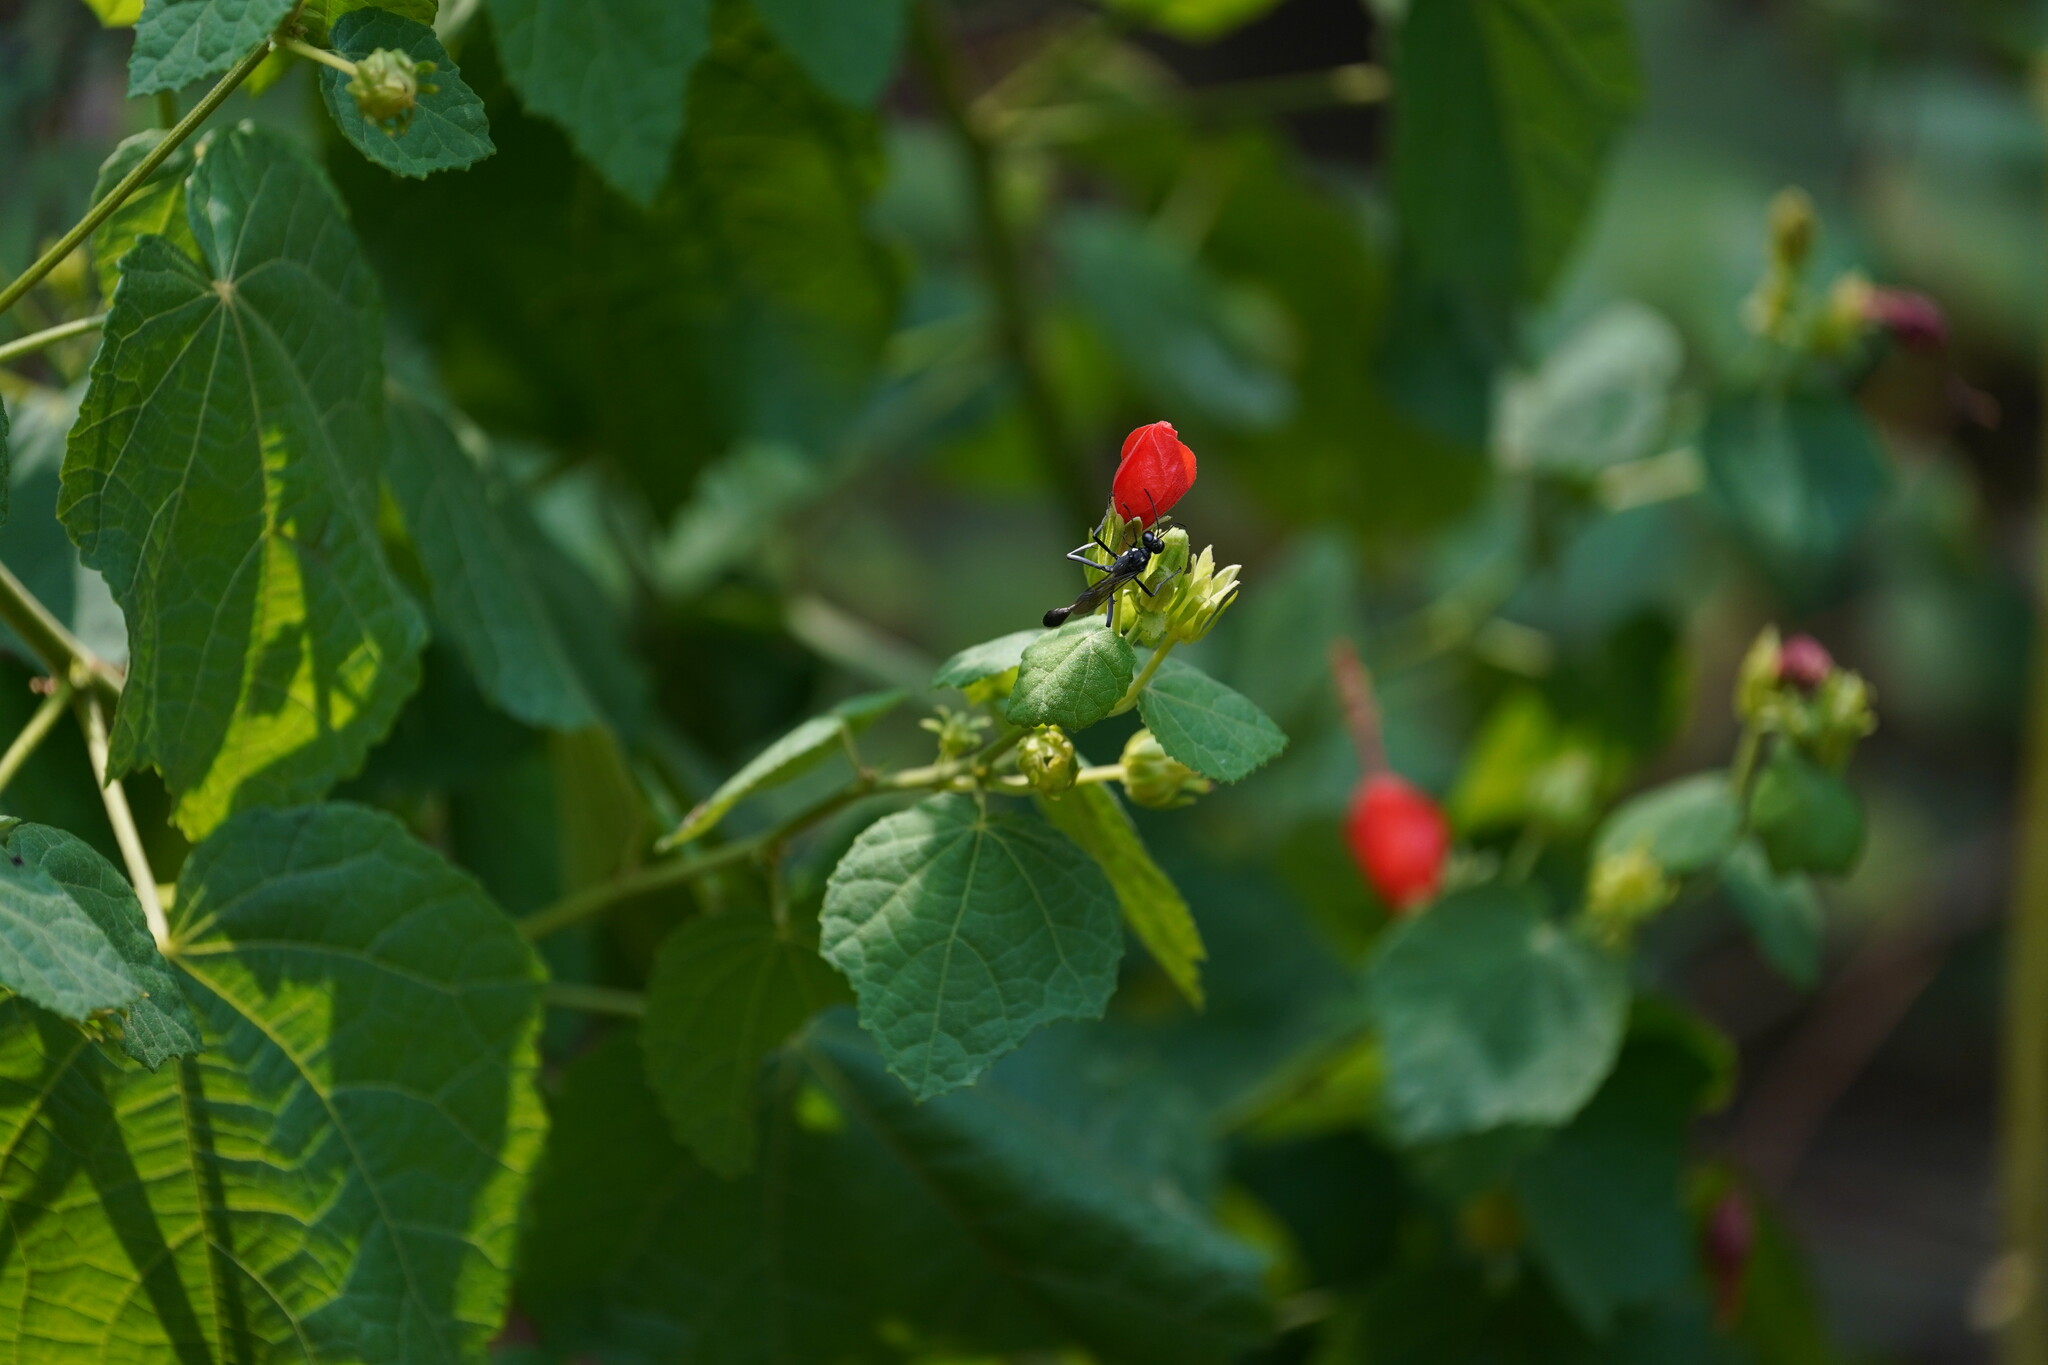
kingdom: Animalia
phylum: Arthropoda
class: Insecta
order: Hymenoptera
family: Sphecidae
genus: Eremnophila
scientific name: Eremnophila aureonotata
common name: Gold-marked thread-waisted wasp
